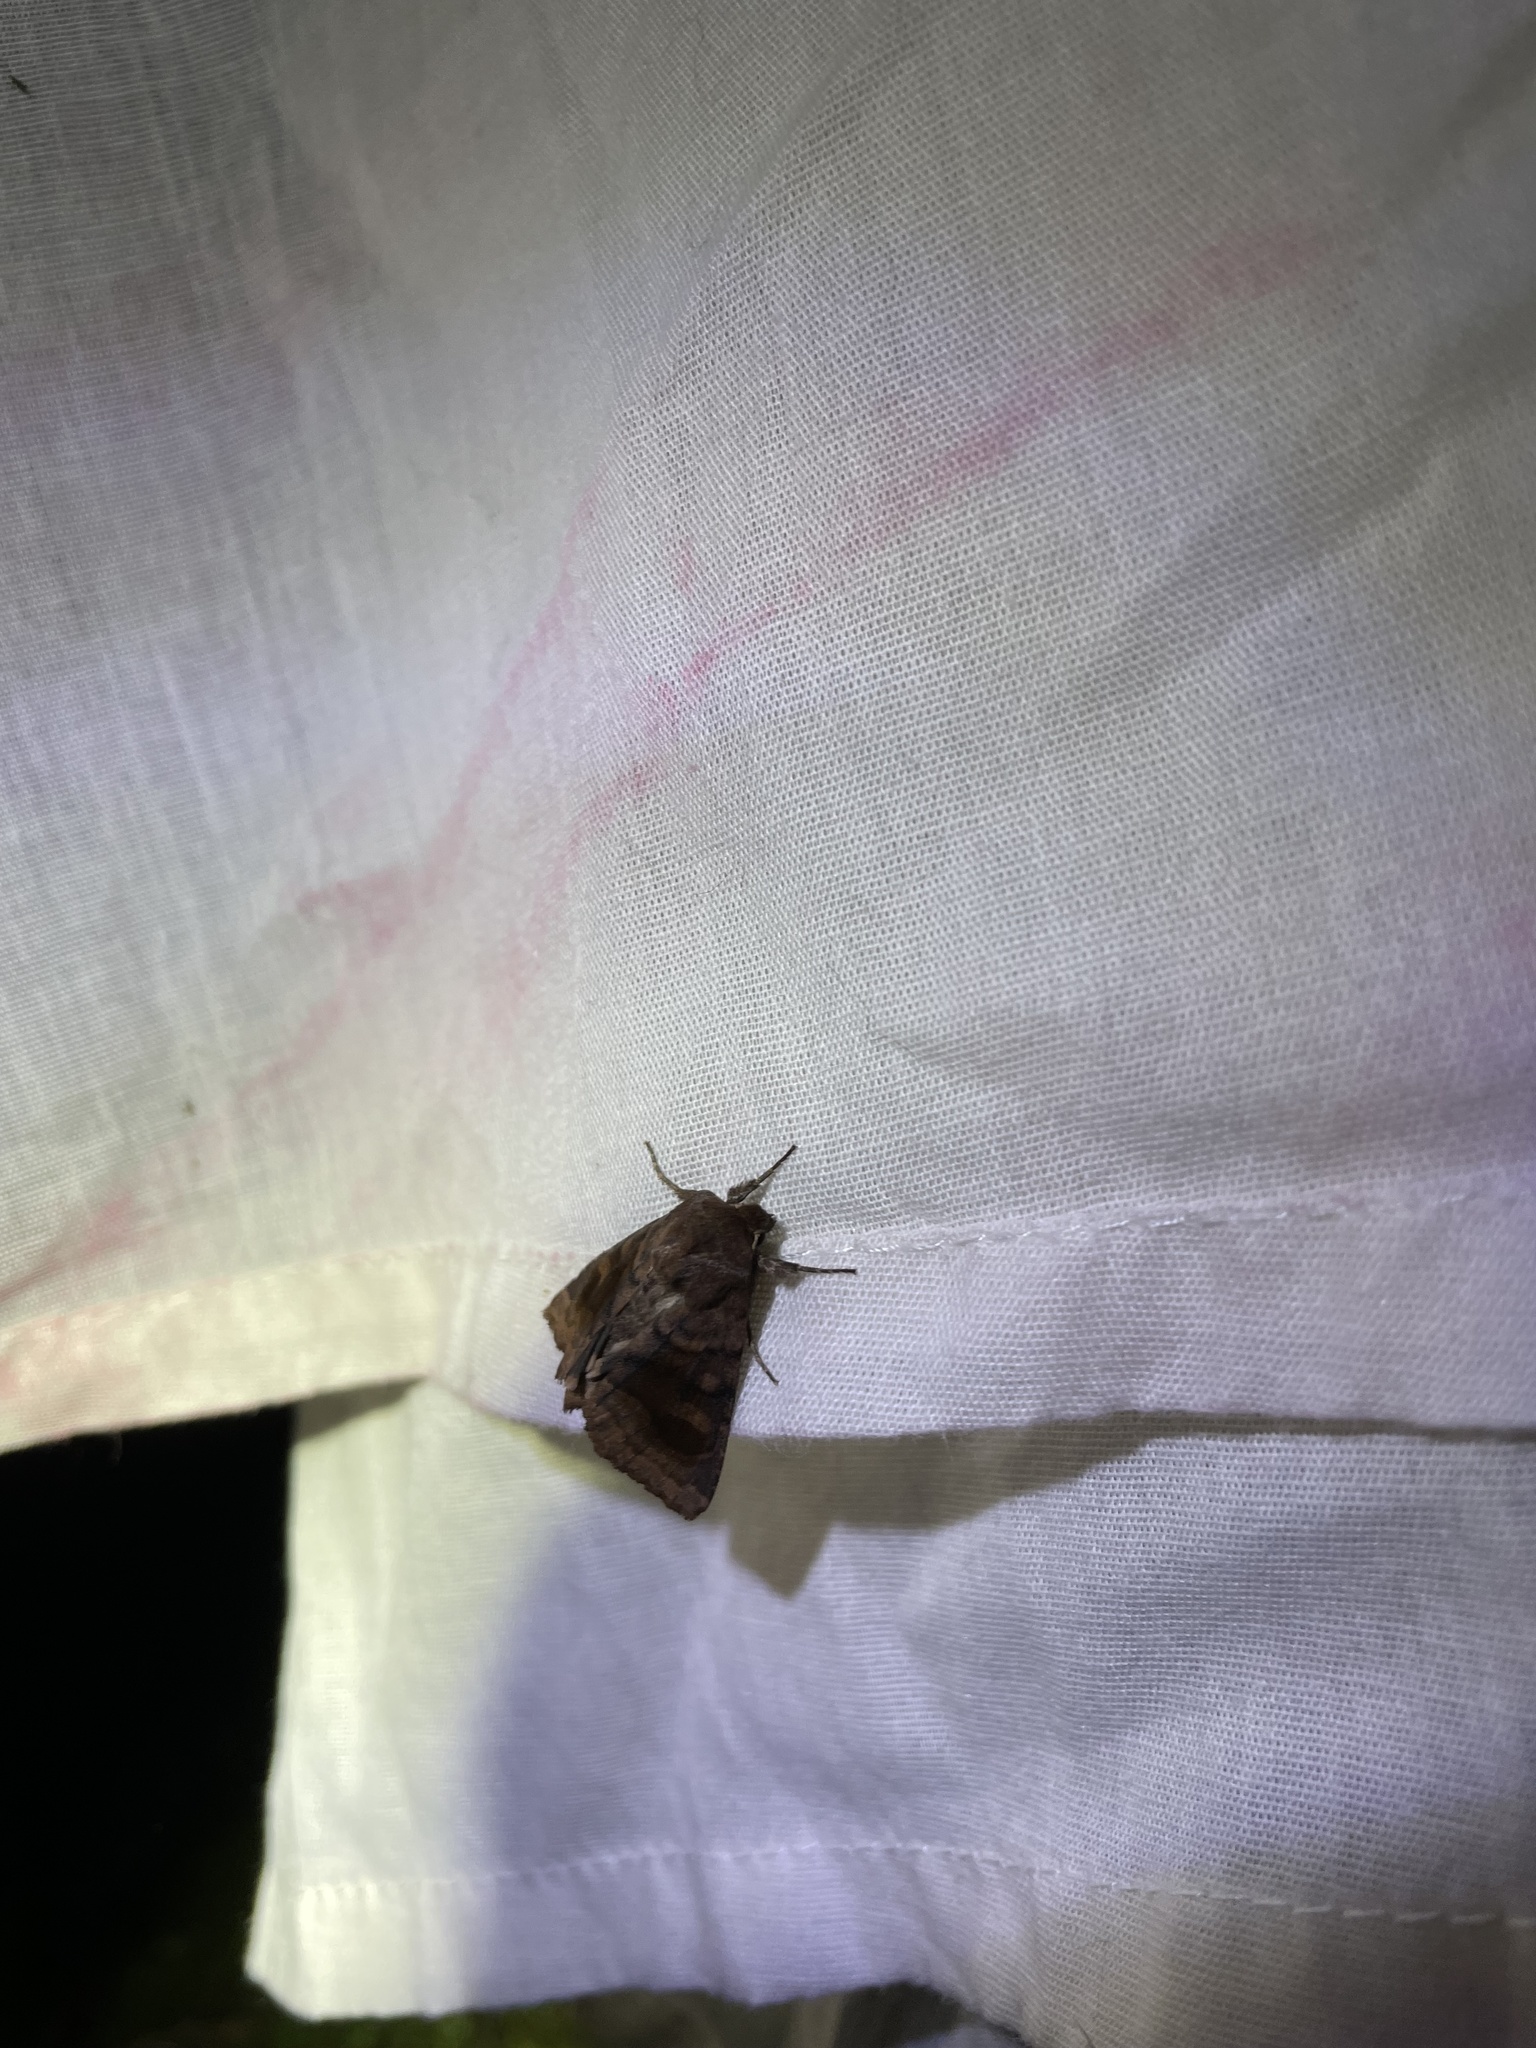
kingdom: Animalia
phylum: Arthropoda
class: Insecta
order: Lepidoptera
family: Noctuidae
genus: Nephelodes
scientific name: Nephelodes minians
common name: Bronzed cutworm
